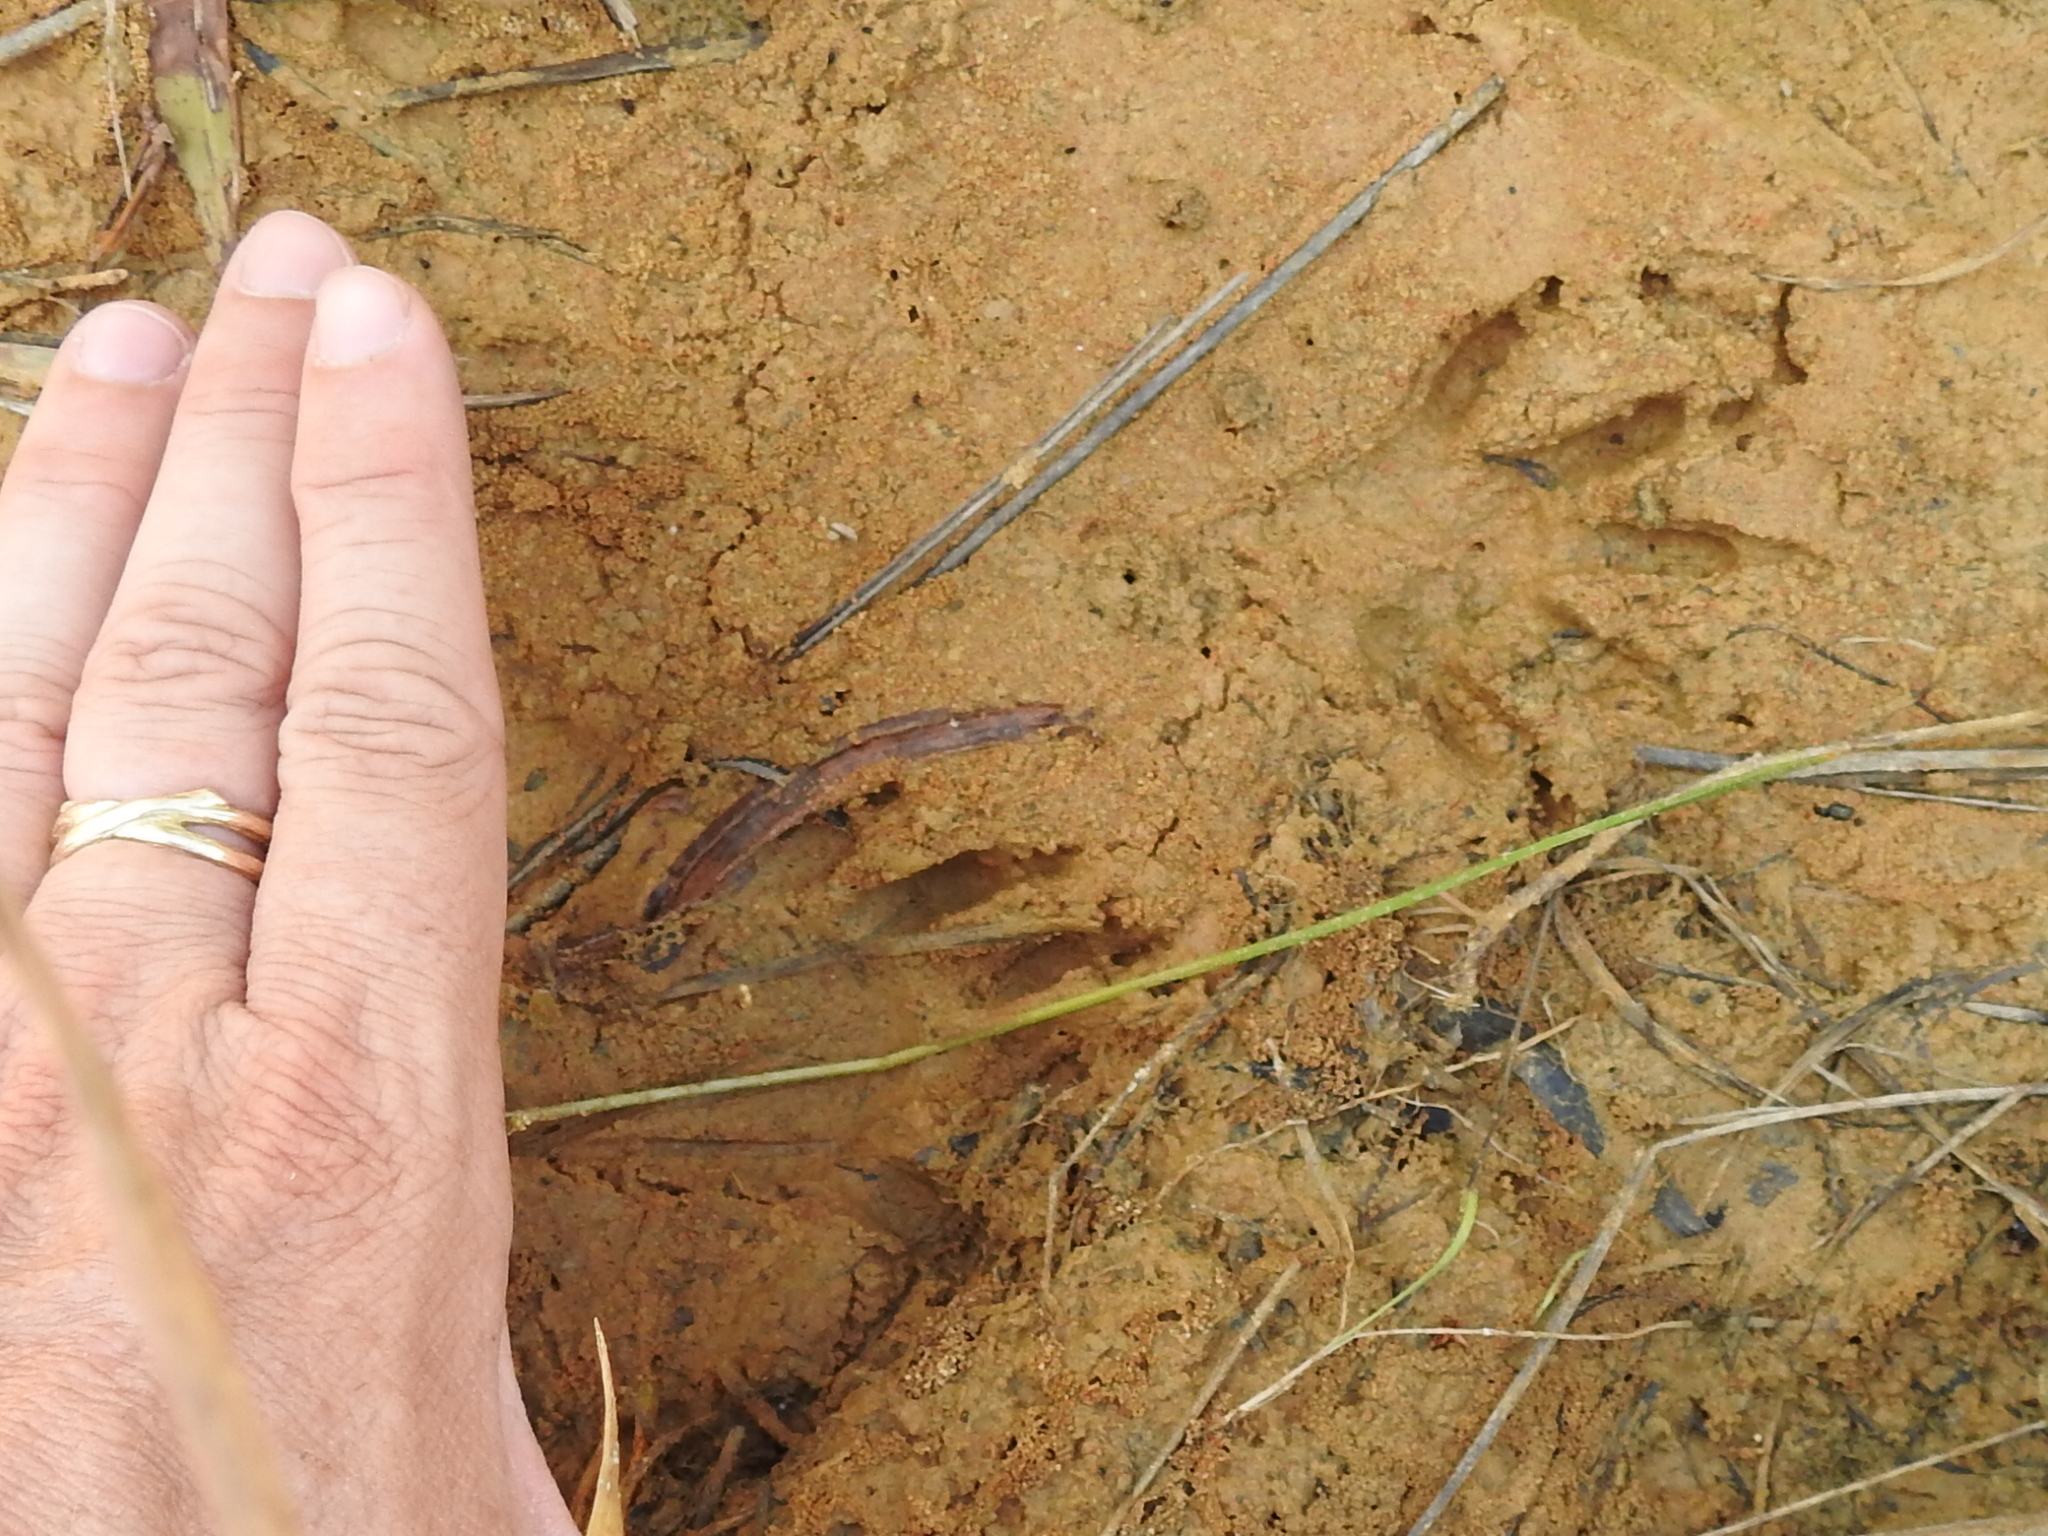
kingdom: Animalia
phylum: Chordata
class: Mammalia
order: Carnivora
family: Procyonidae
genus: Procyon
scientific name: Procyon lotor
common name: Raccoon
